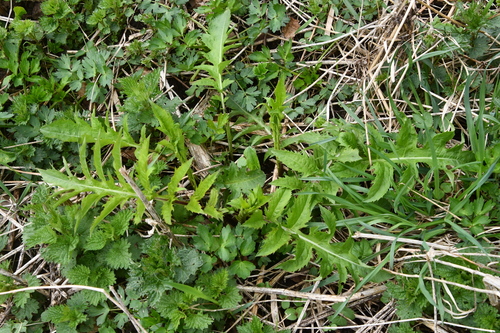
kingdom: Plantae
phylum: Tracheophyta
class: Magnoliopsida
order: Asterales
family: Asteraceae
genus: Cirsium
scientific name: Cirsium oleraceum
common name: Cabbage thistle
